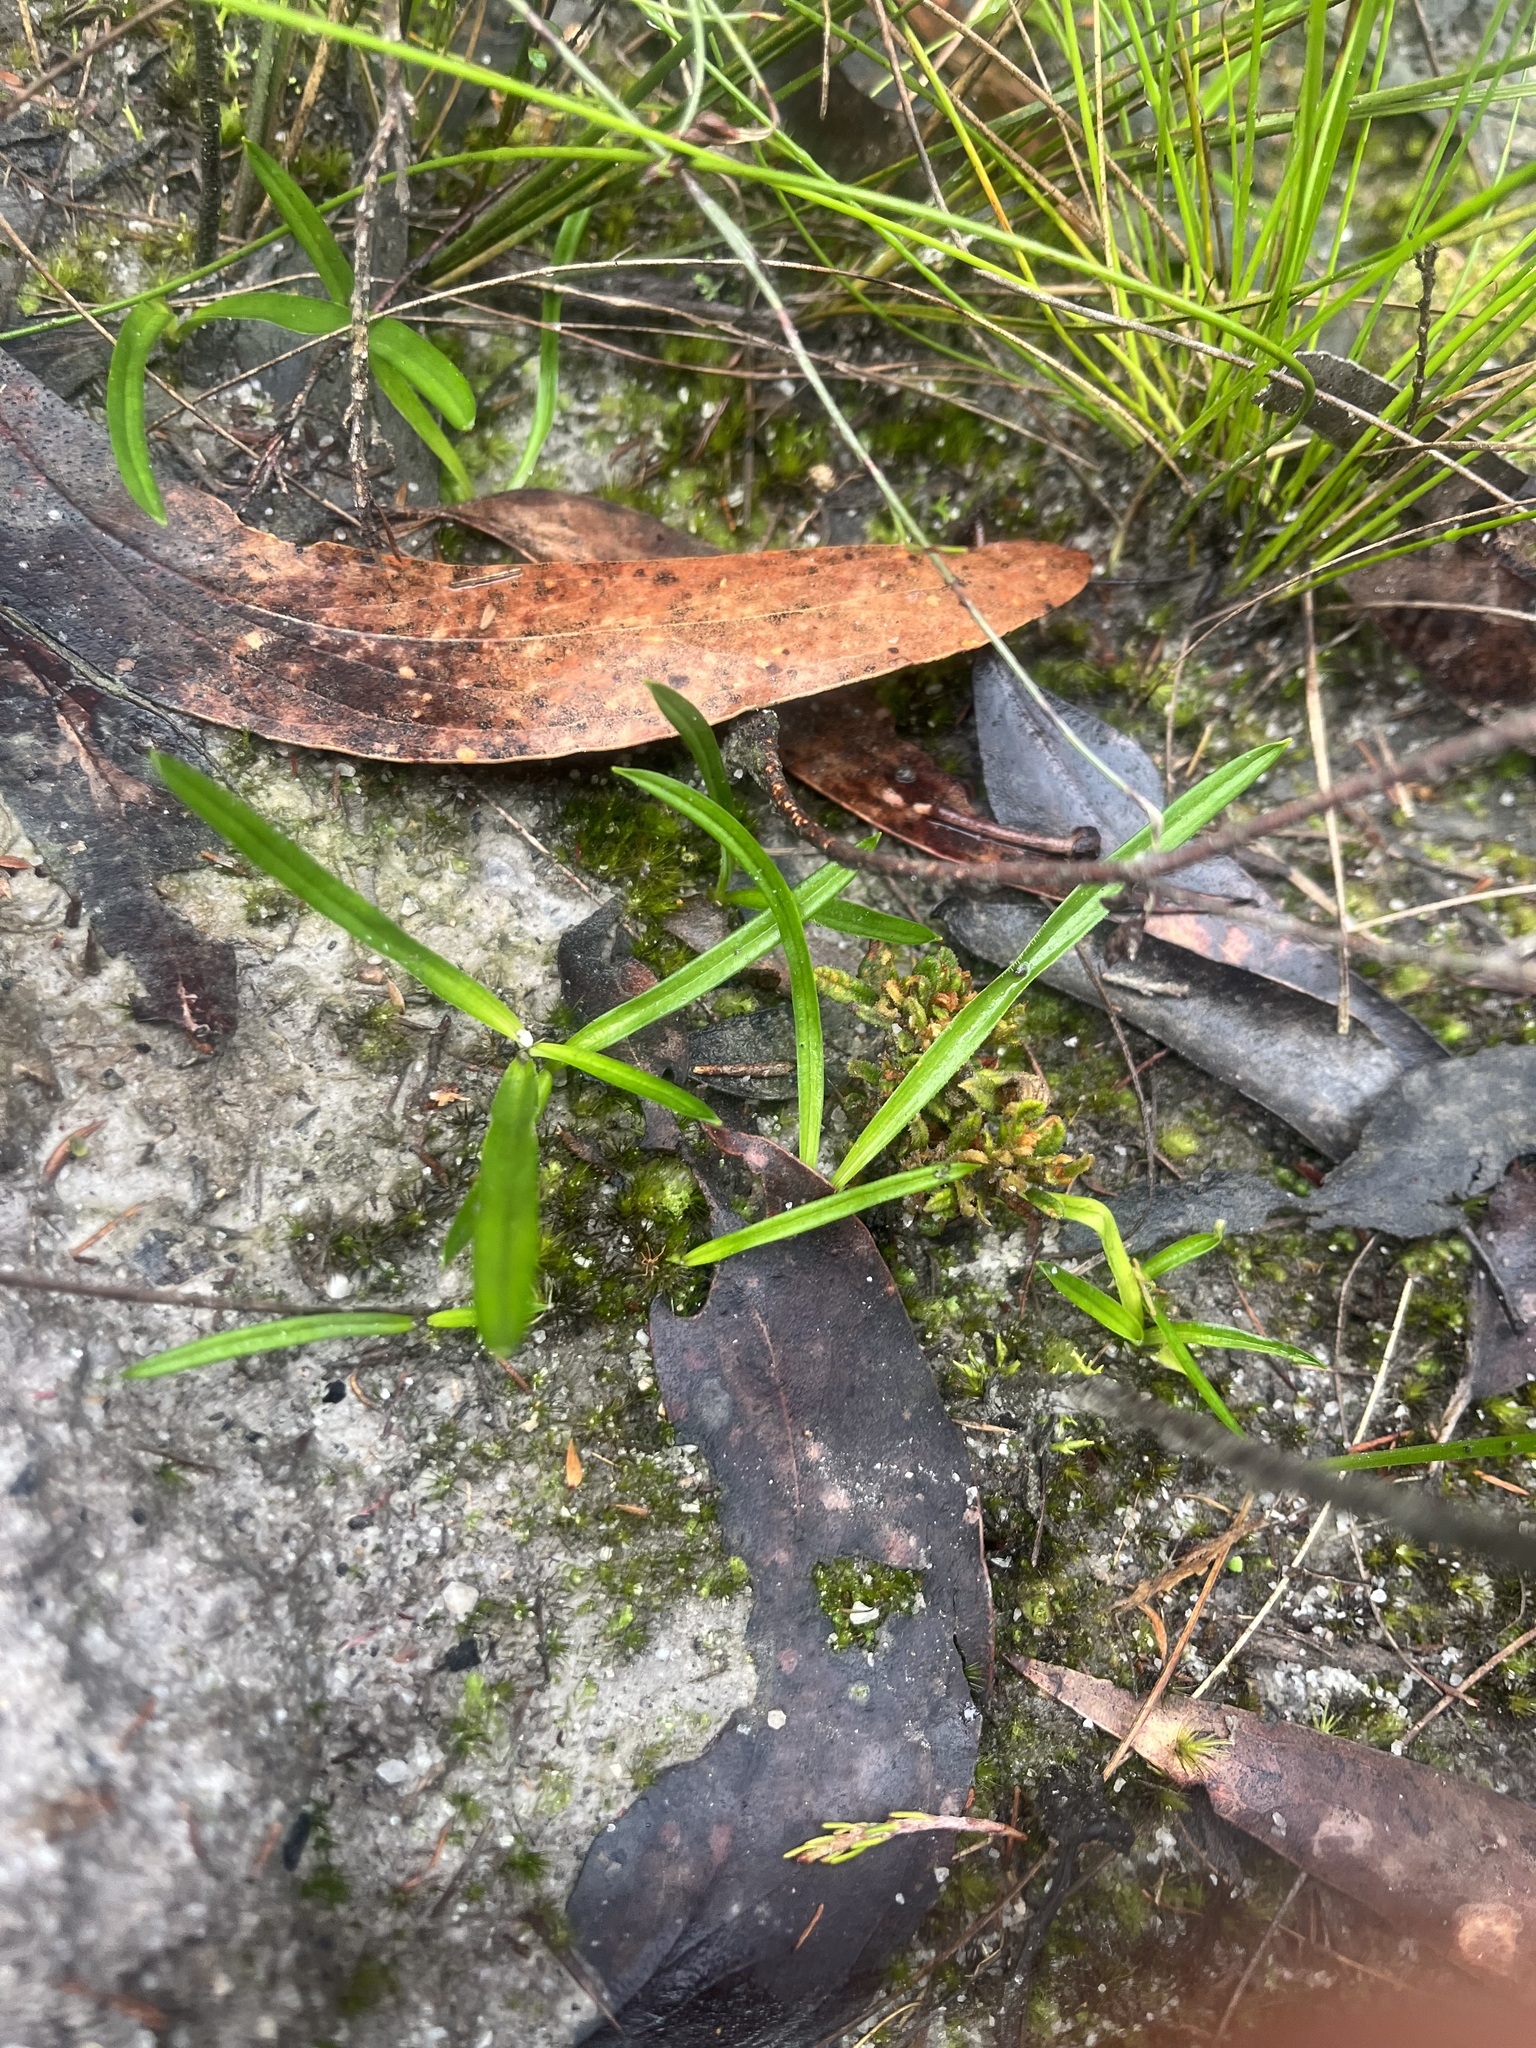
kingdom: Plantae
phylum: Tracheophyta
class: Liliopsida
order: Asparagales
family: Asphodelaceae
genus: Chamaescilla
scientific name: Chamaescilla corymbosa
